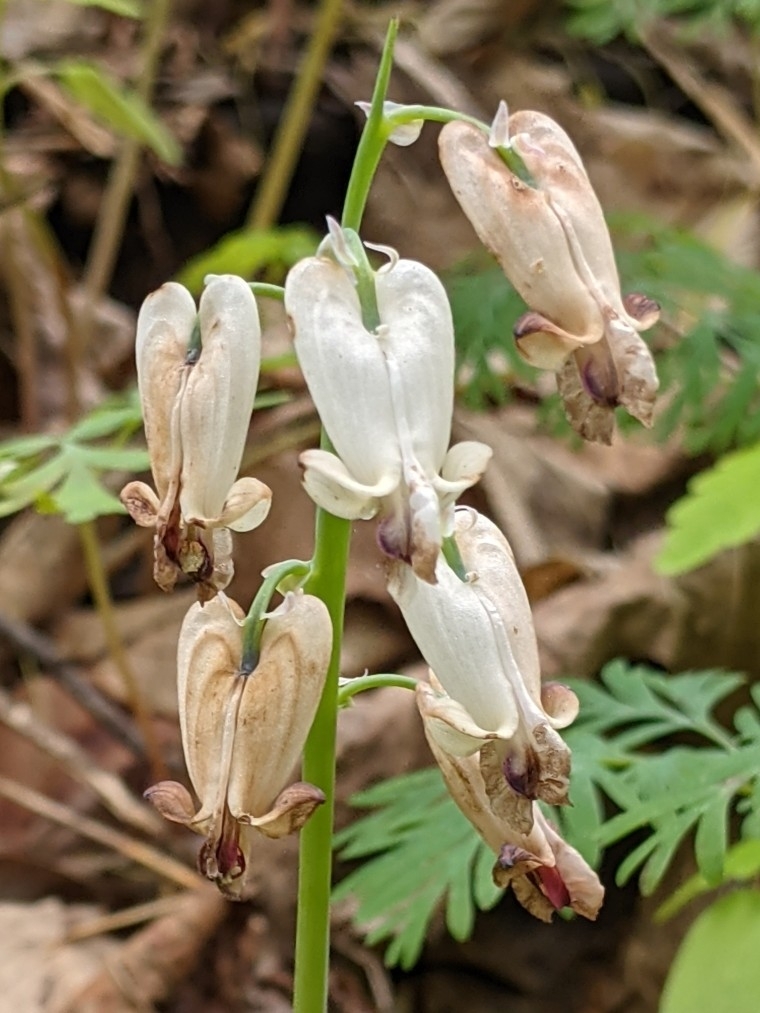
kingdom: Plantae
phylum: Tracheophyta
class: Magnoliopsida
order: Ranunculales
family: Papaveraceae
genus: Dicentra
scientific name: Dicentra canadensis
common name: Squirrel-corn
